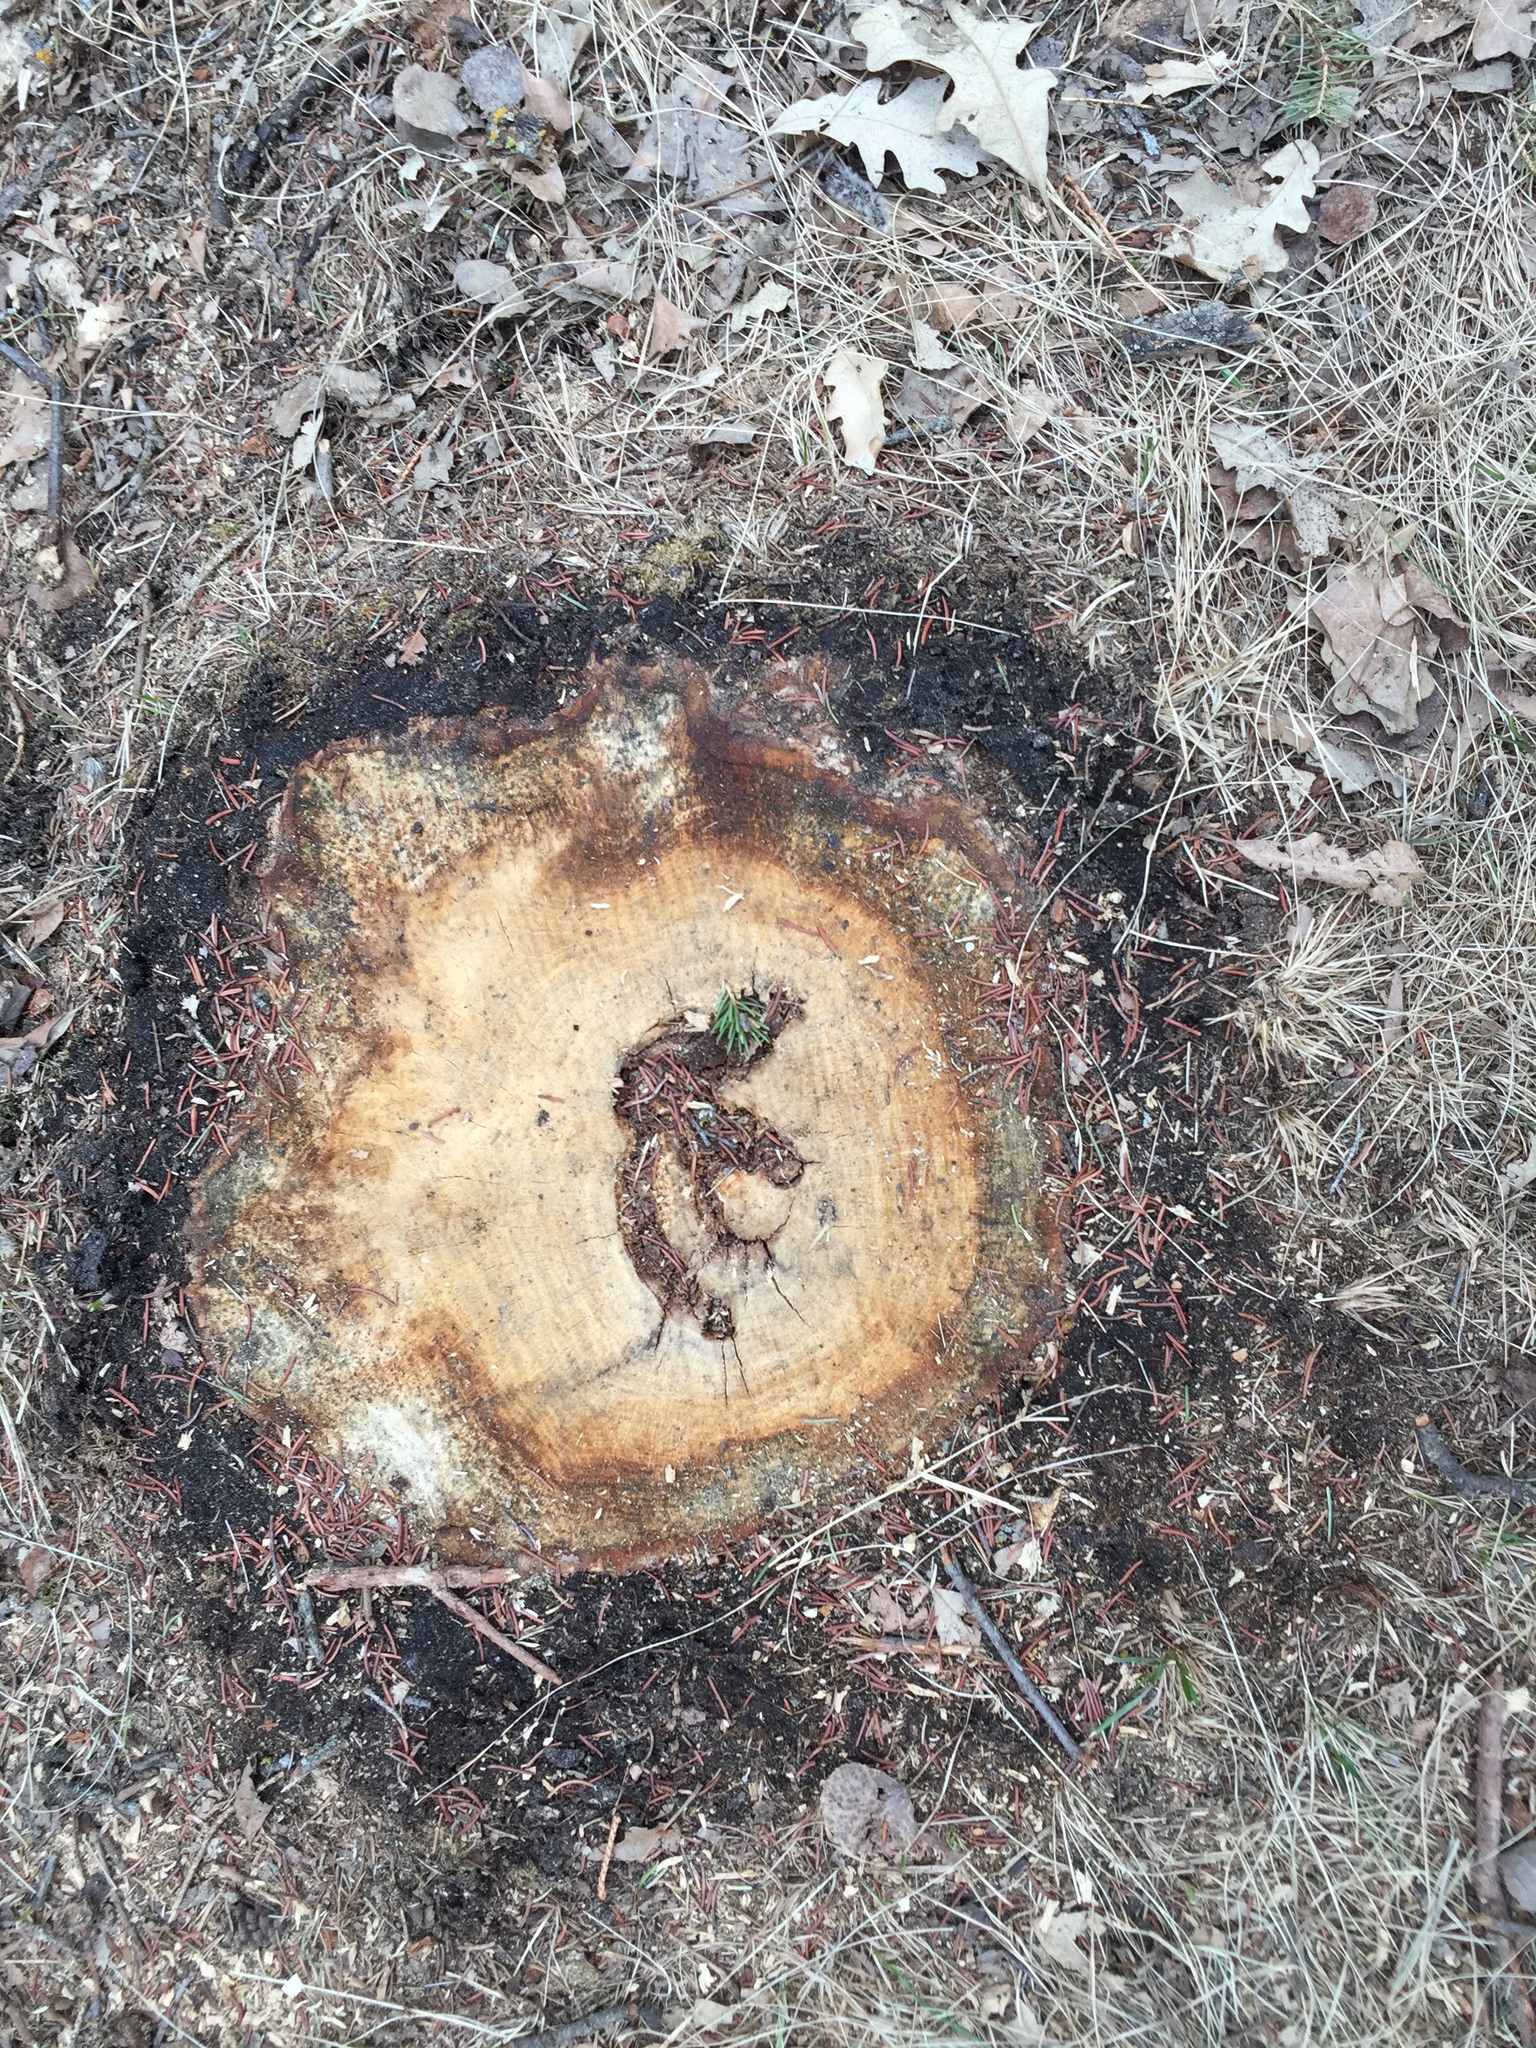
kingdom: Plantae
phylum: Tracheophyta
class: Magnoliopsida
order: Malpighiales
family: Salicaceae
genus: Populus
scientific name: Populus tremuloides
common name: Quaking aspen
